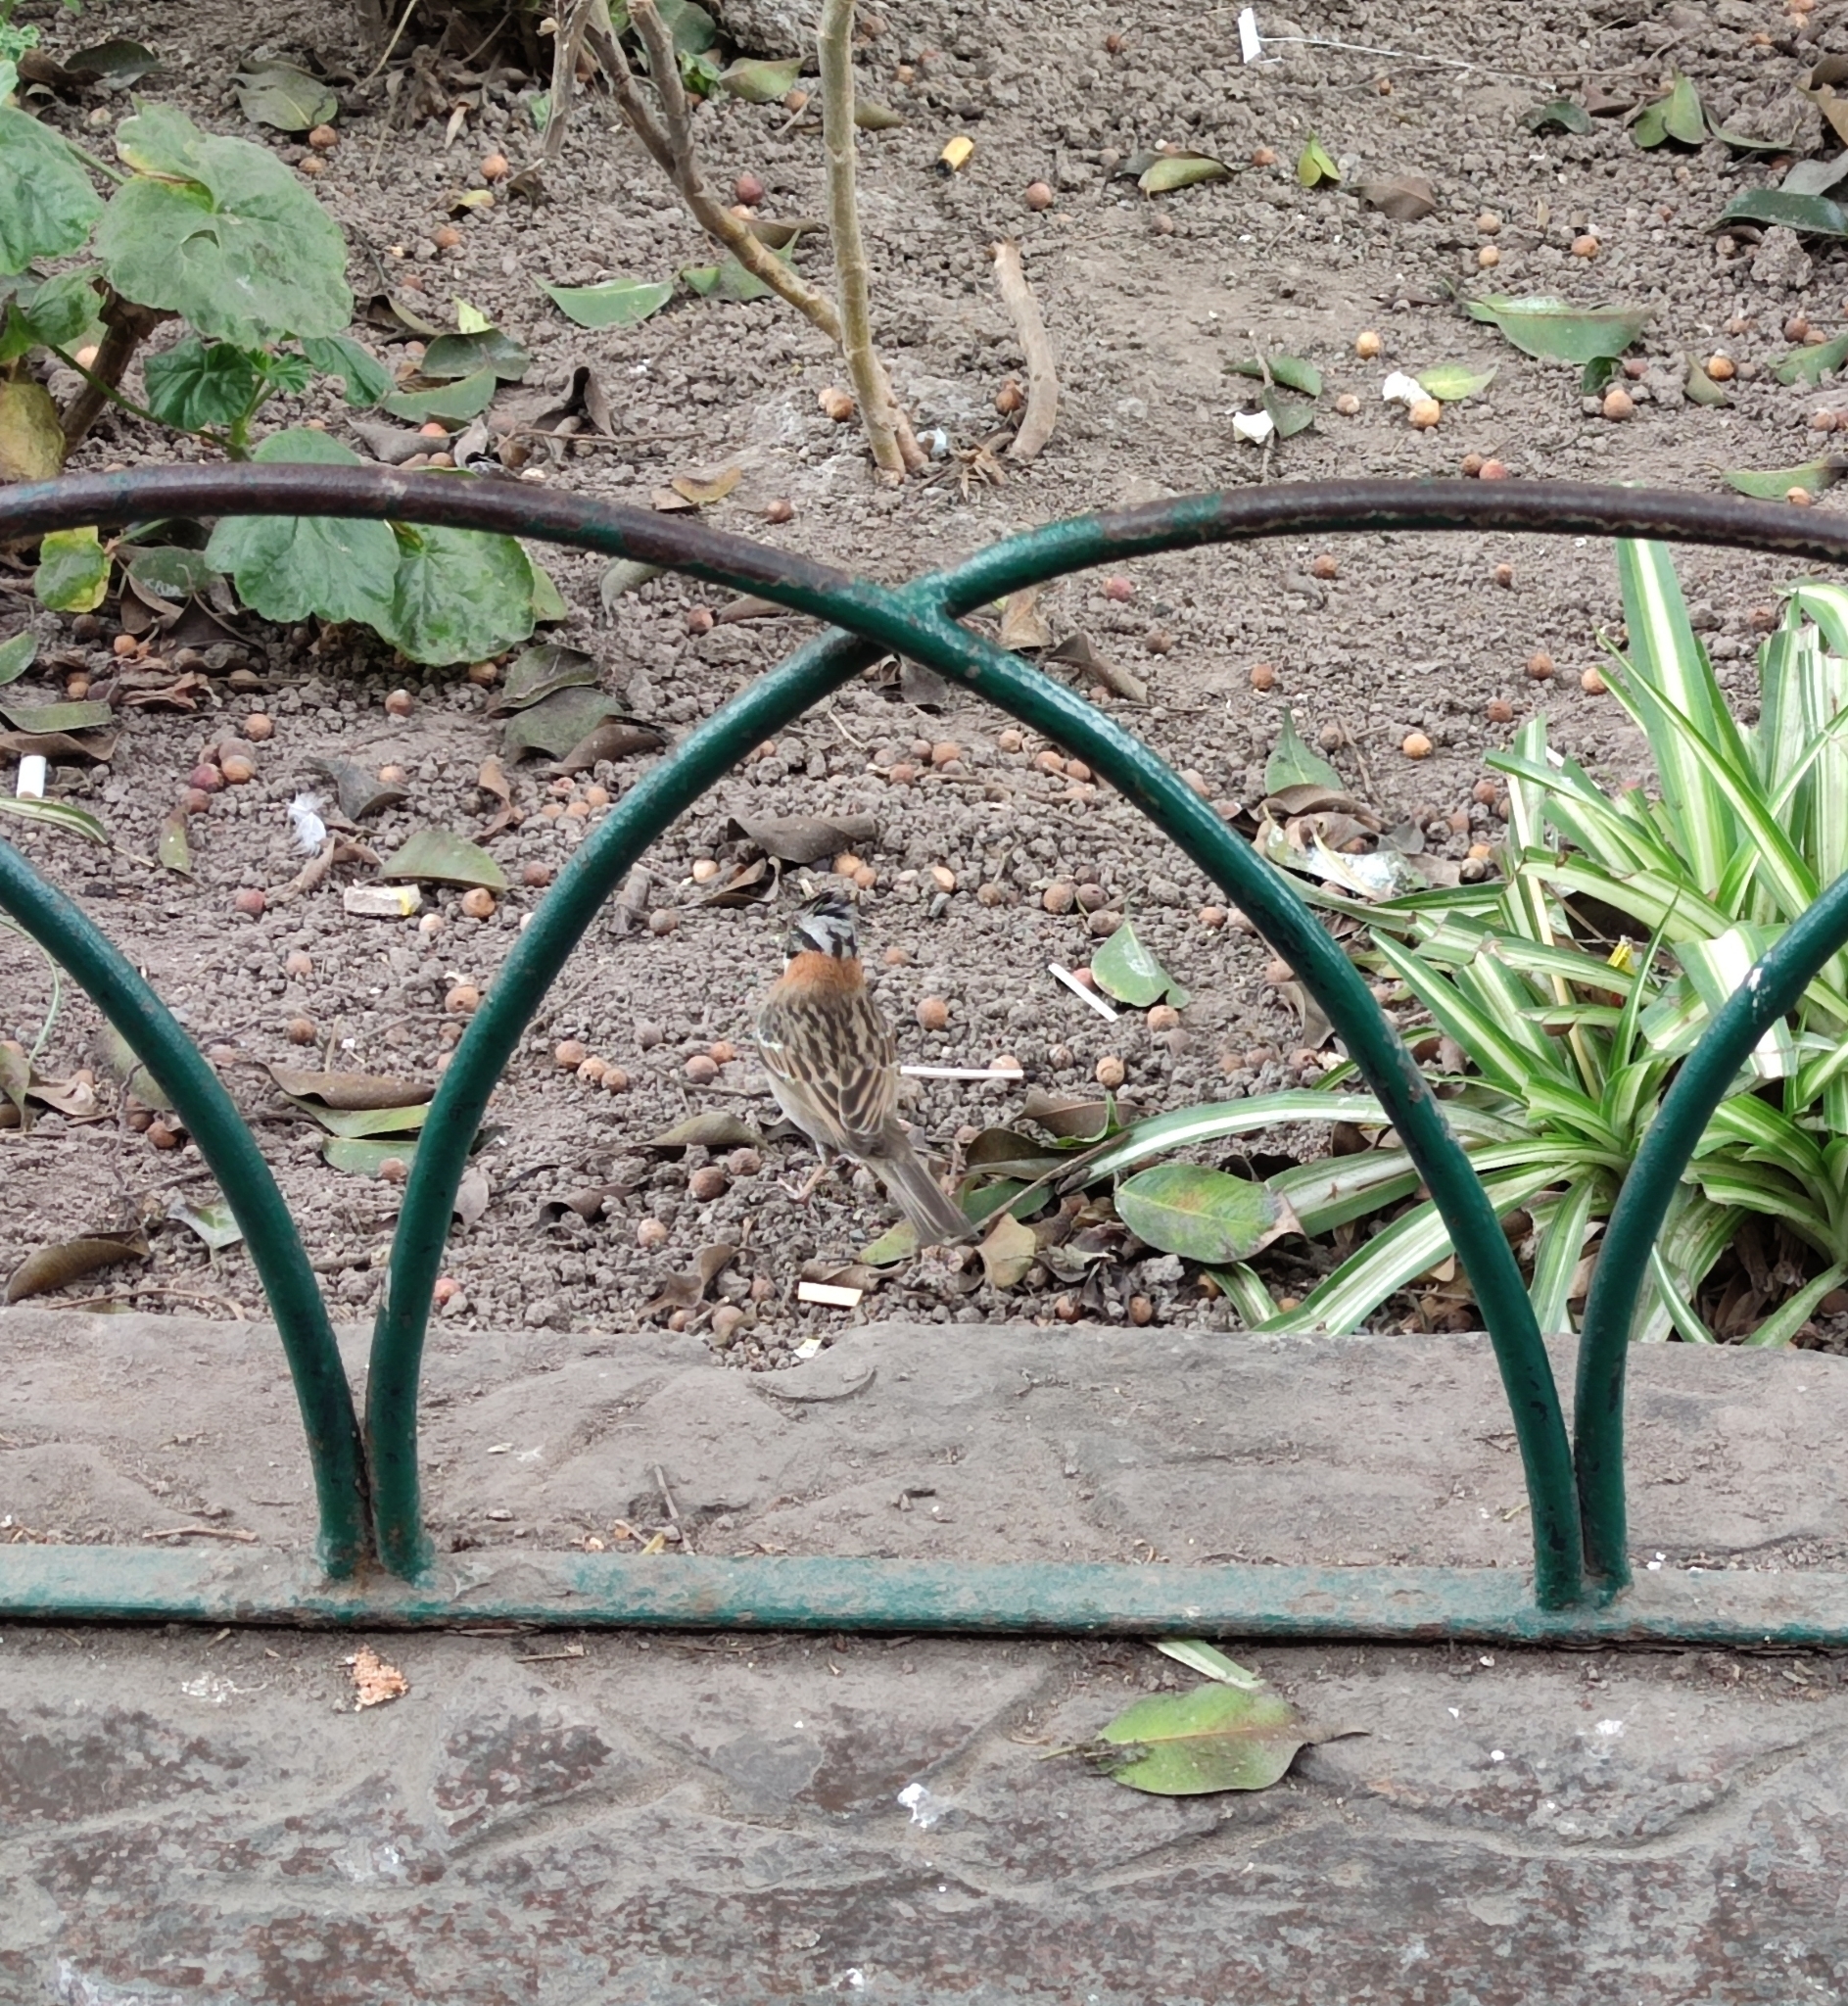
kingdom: Animalia
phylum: Chordata
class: Aves
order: Passeriformes
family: Passerellidae
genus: Zonotrichia
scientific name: Zonotrichia capensis
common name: Rufous-collared sparrow
